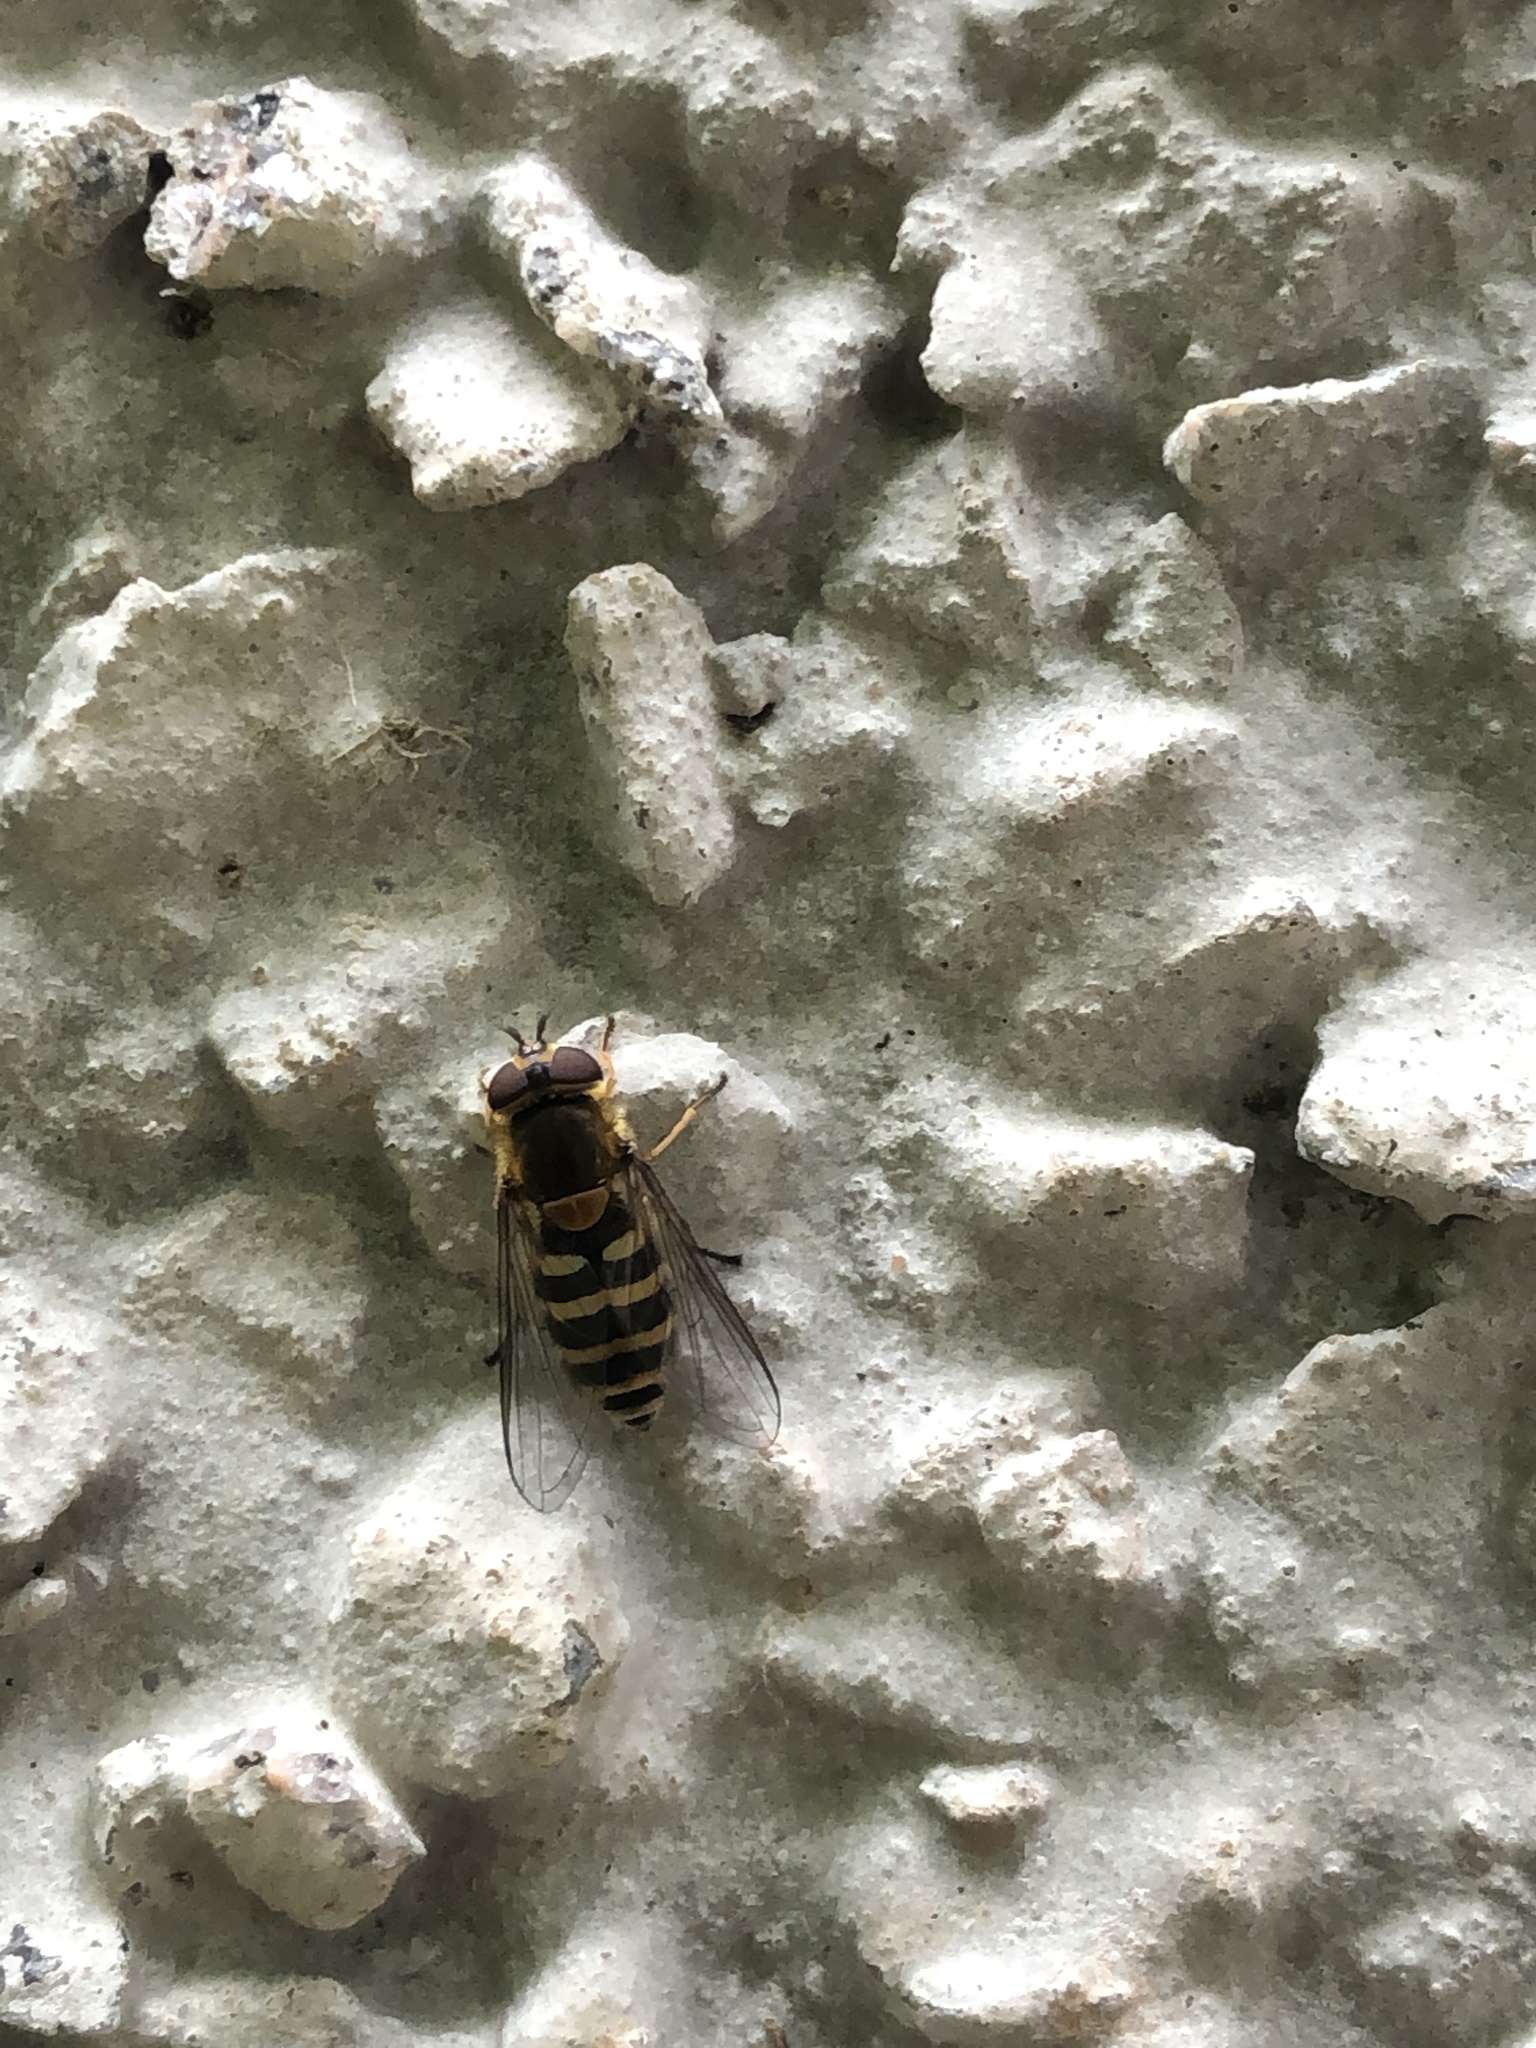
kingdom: Animalia
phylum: Arthropoda
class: Insecta
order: Diptera
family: Syrphidae
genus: Syrphus
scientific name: Syrphus
